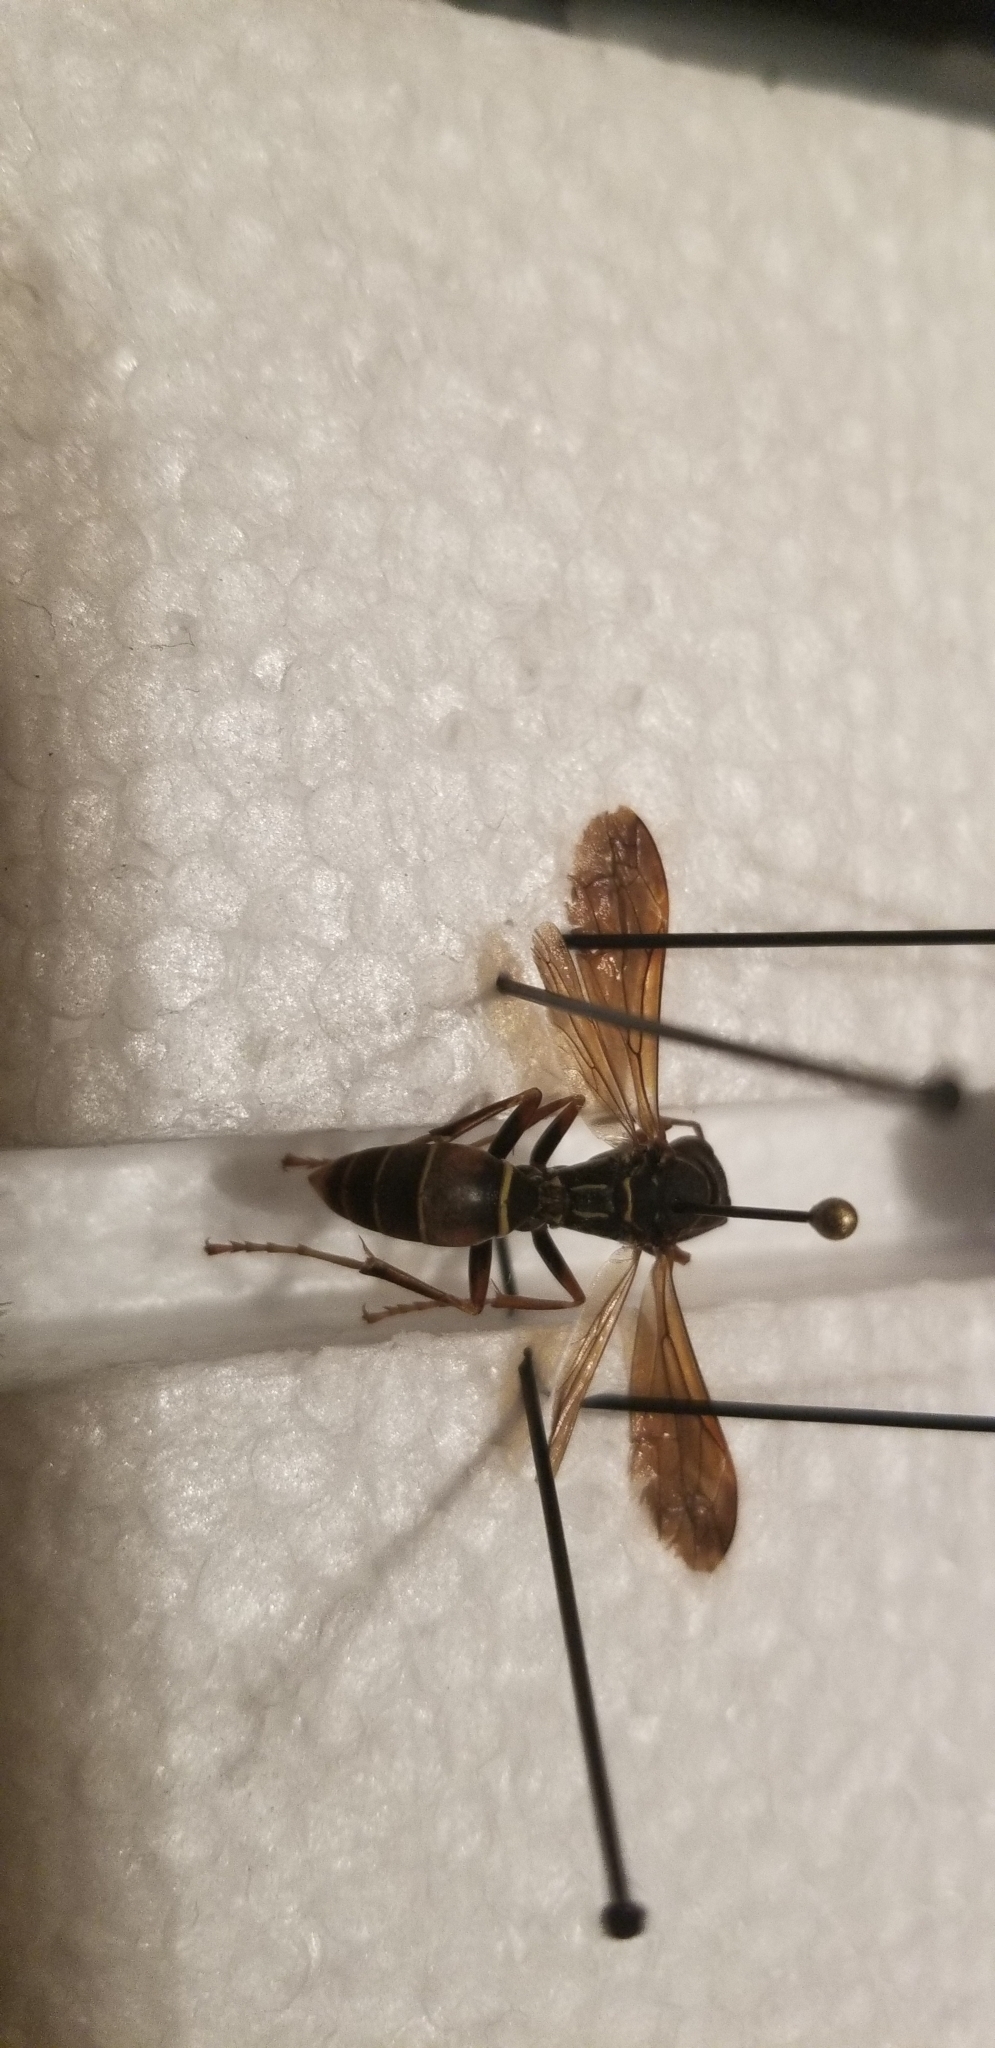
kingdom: Animalia
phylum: Arthropoda
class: Insecta
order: Hymenoptera
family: Eumenidae
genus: Polistes
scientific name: Polistes fuscatus
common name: Dark paper wasp
